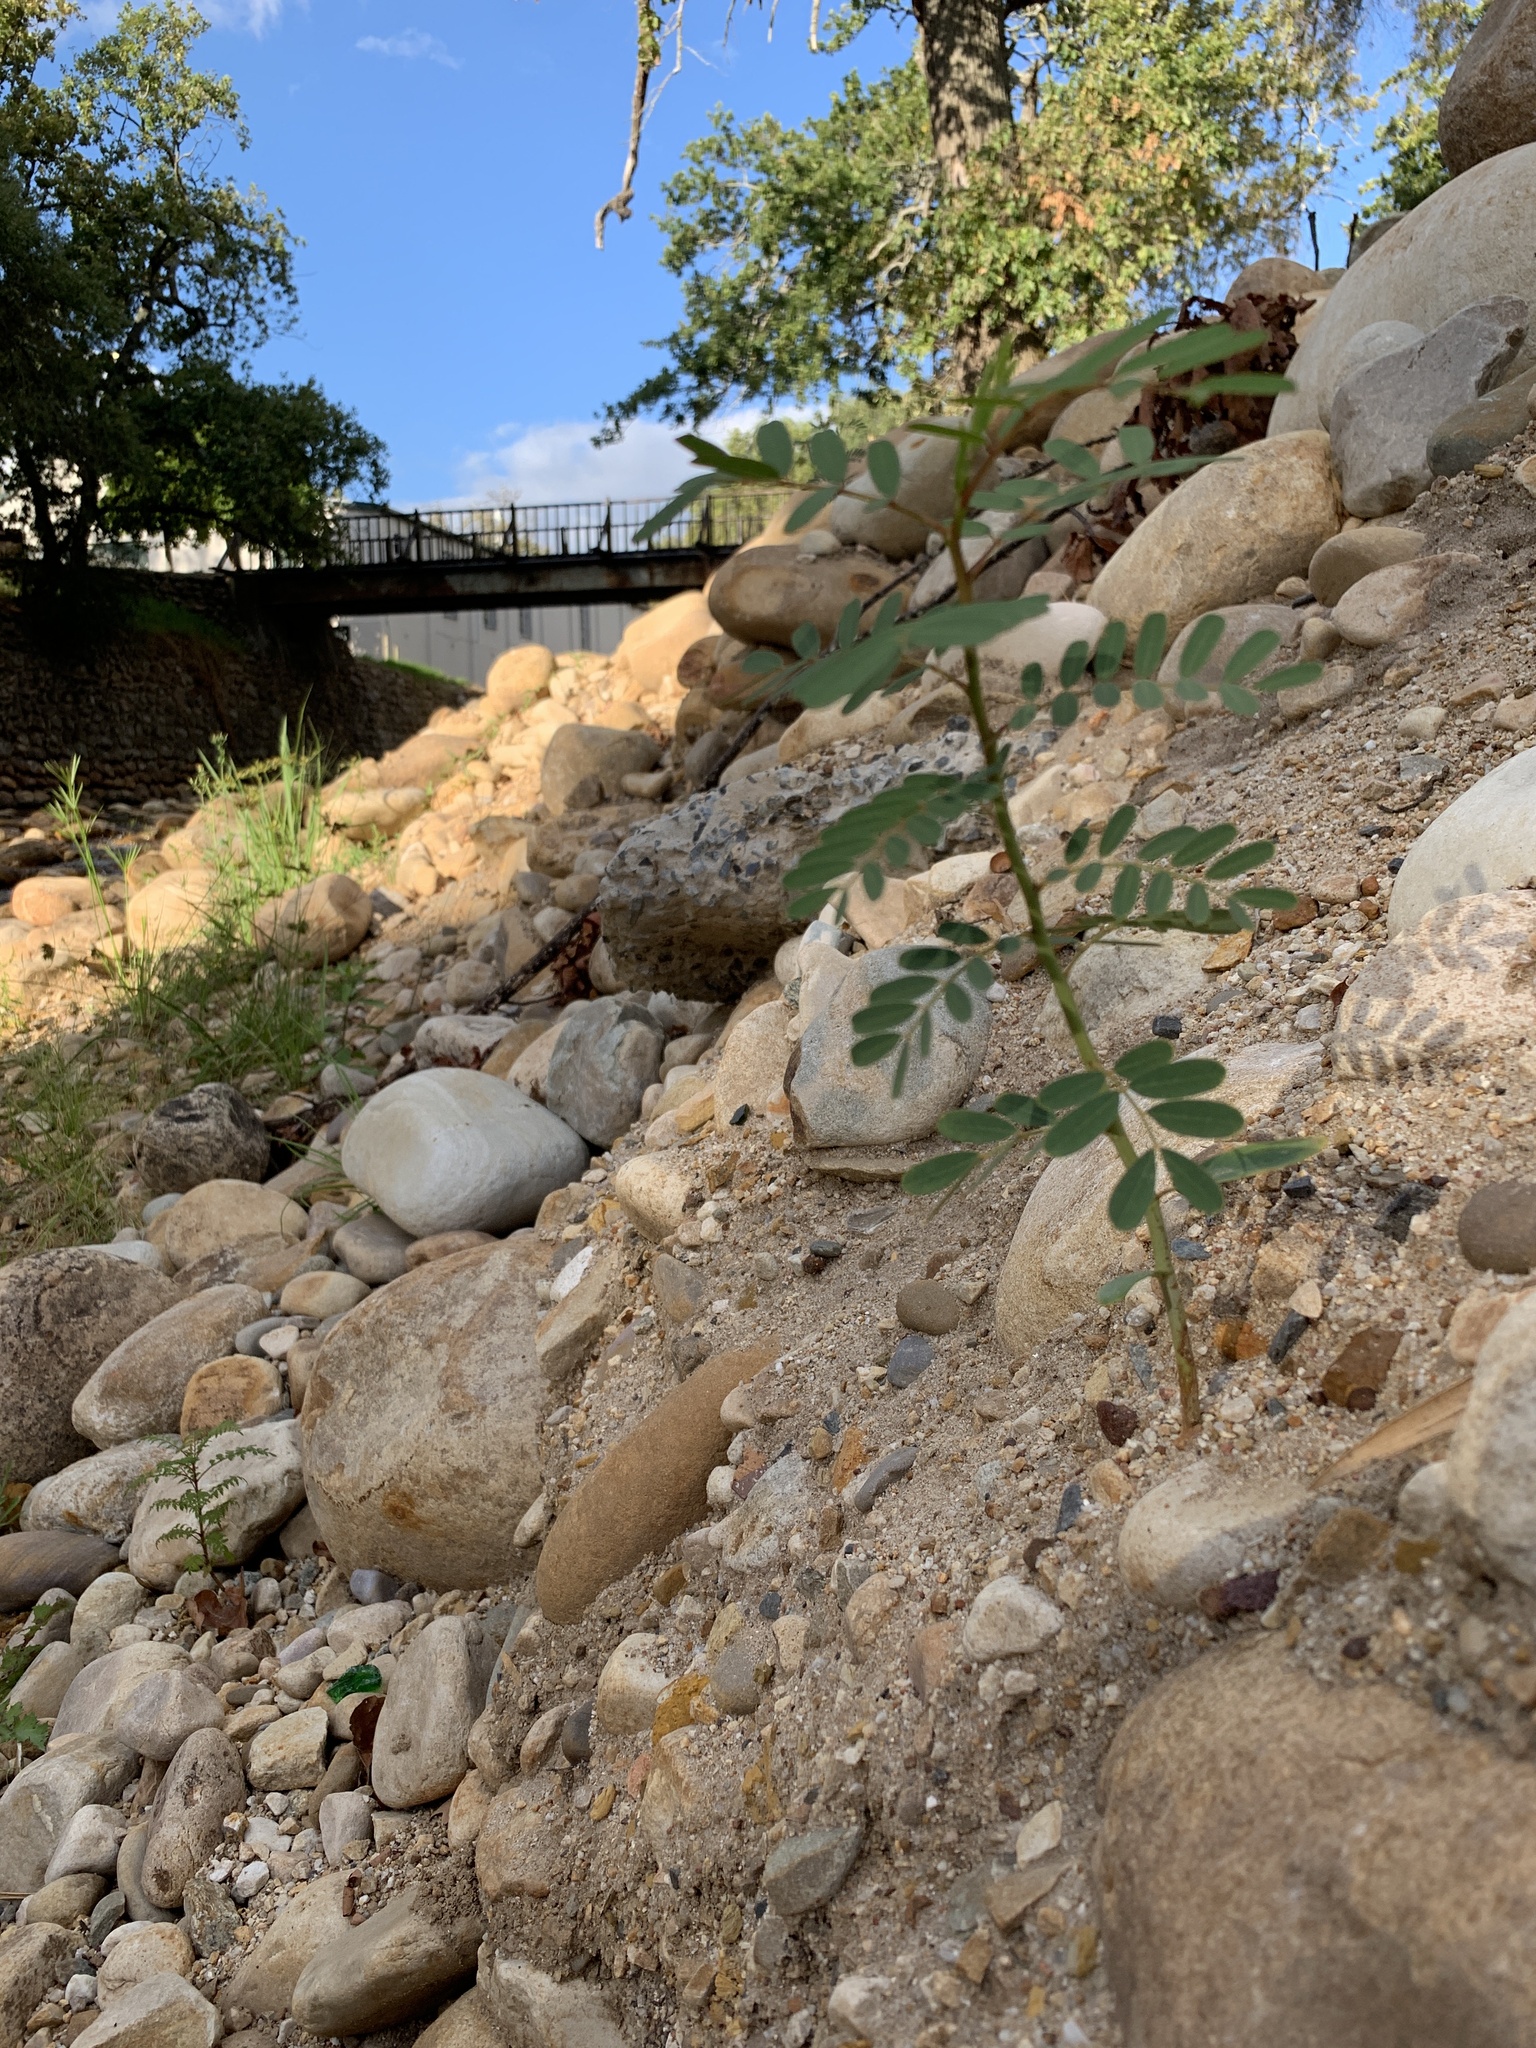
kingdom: Plantae
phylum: Tracheophyta
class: Magnoliopsida
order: Fabales
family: Fabaceae
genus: Sesbania
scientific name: Sesbania punicea
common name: Rattlebox
